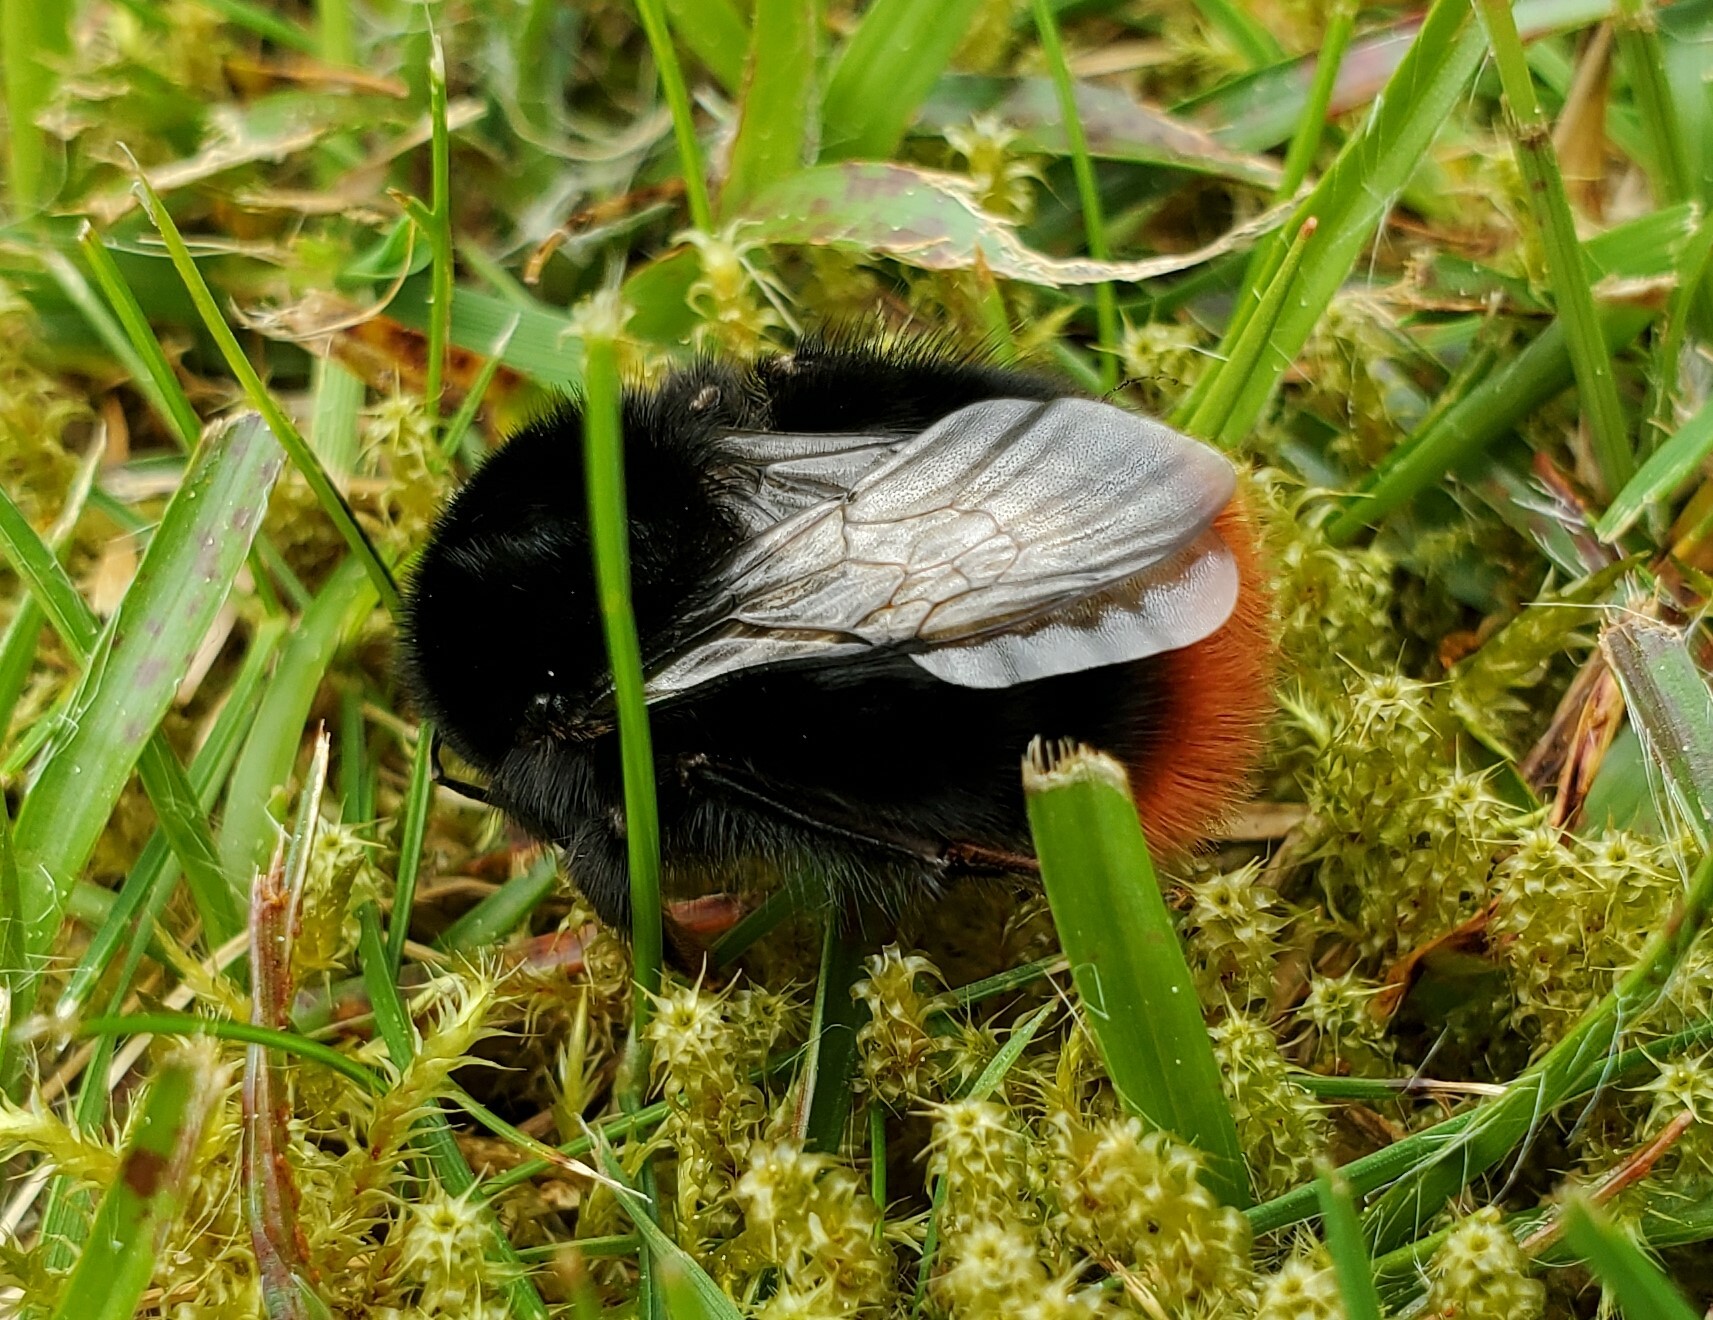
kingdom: Animalia
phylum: Arthropoda
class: Insecta
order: Hymenoptera
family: Apidae
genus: Bombus
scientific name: Bombus lapidarius
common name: Large red-tailed humble-bee
